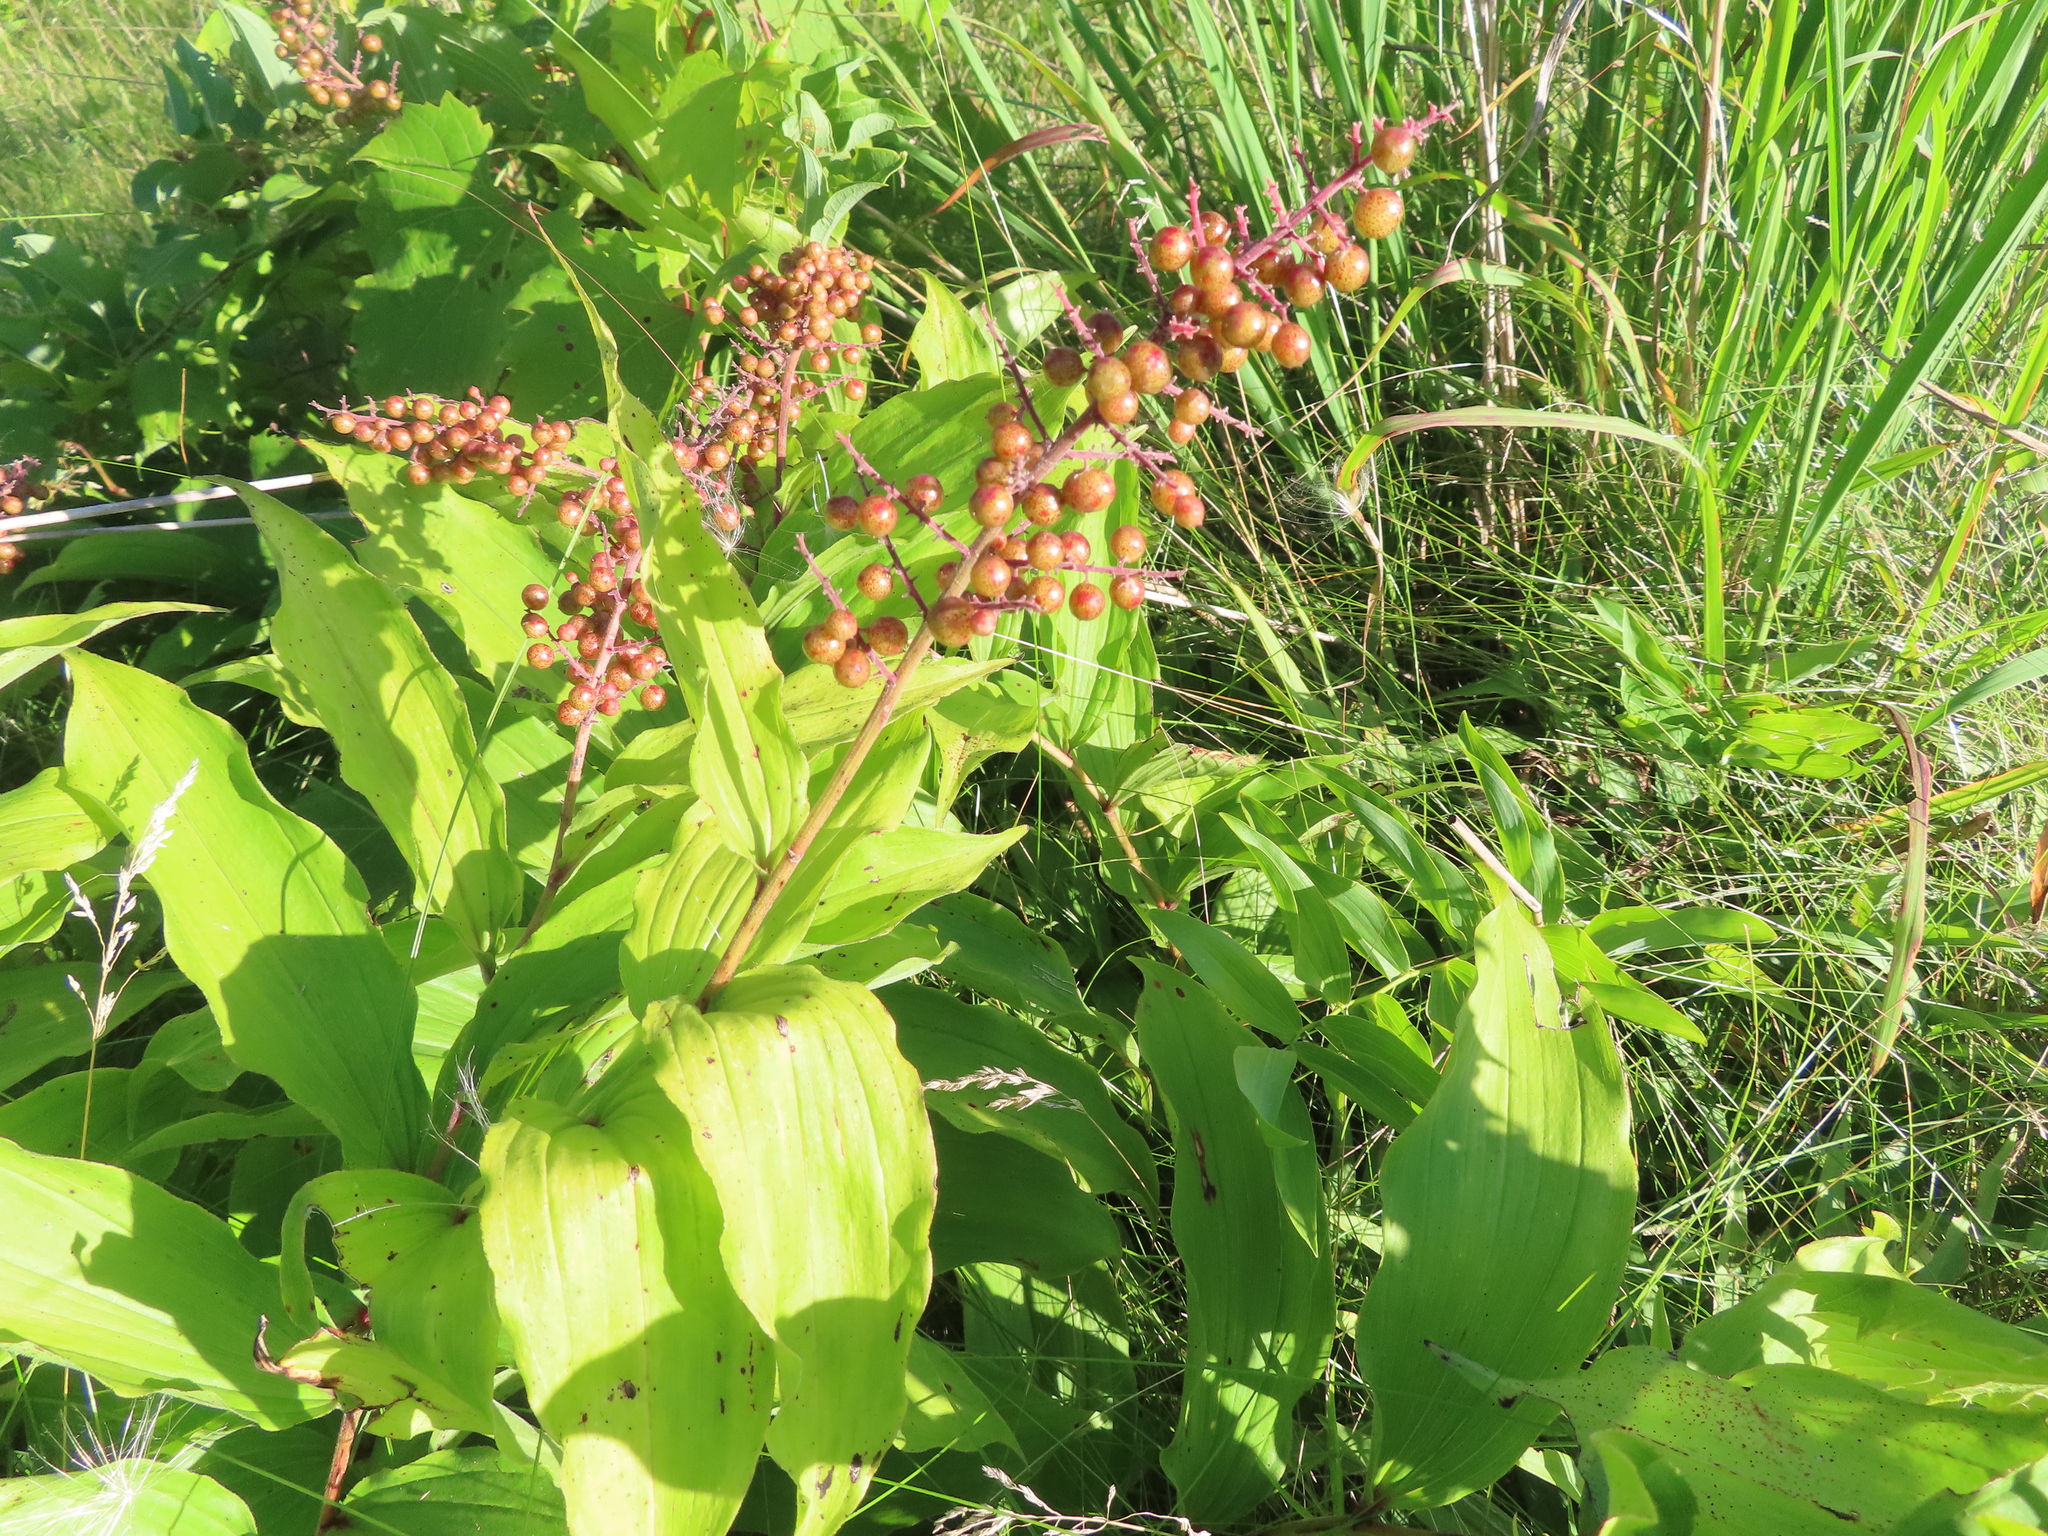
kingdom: Plantae
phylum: Tracheophyta
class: Liliopsida
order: Asparagales
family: Asparagaceae
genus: Maianthemum
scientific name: Maianthemum racemosum
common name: False spikenard
